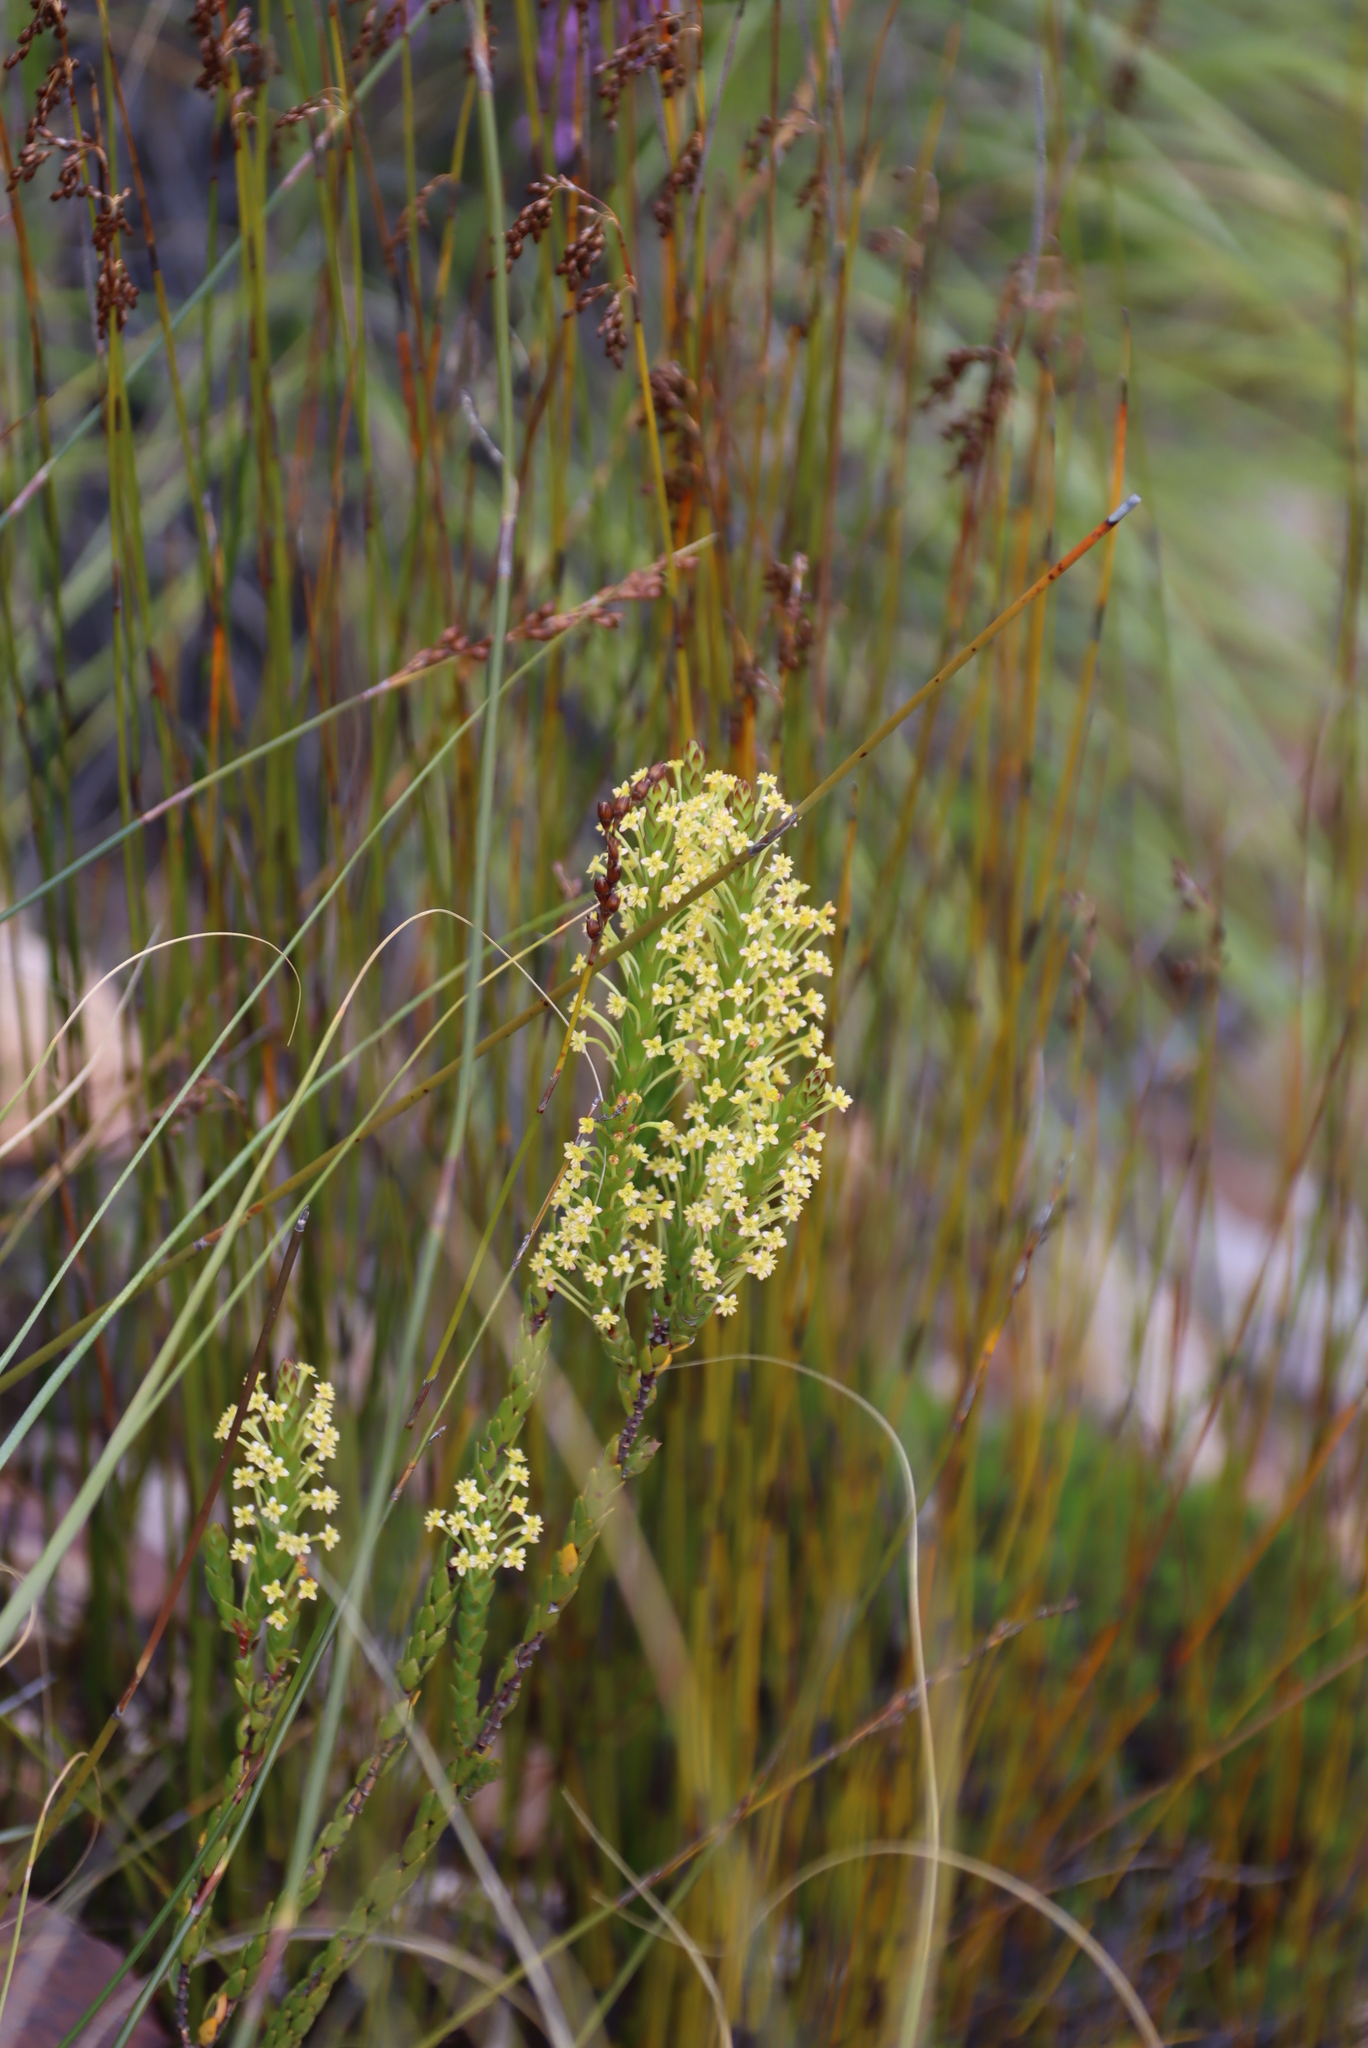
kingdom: Plantae
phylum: Tracheophyta
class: Magnoliopsida
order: Malvales
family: Thymelaeaceae
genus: Struthiola
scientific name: Struthiola eckloniana
